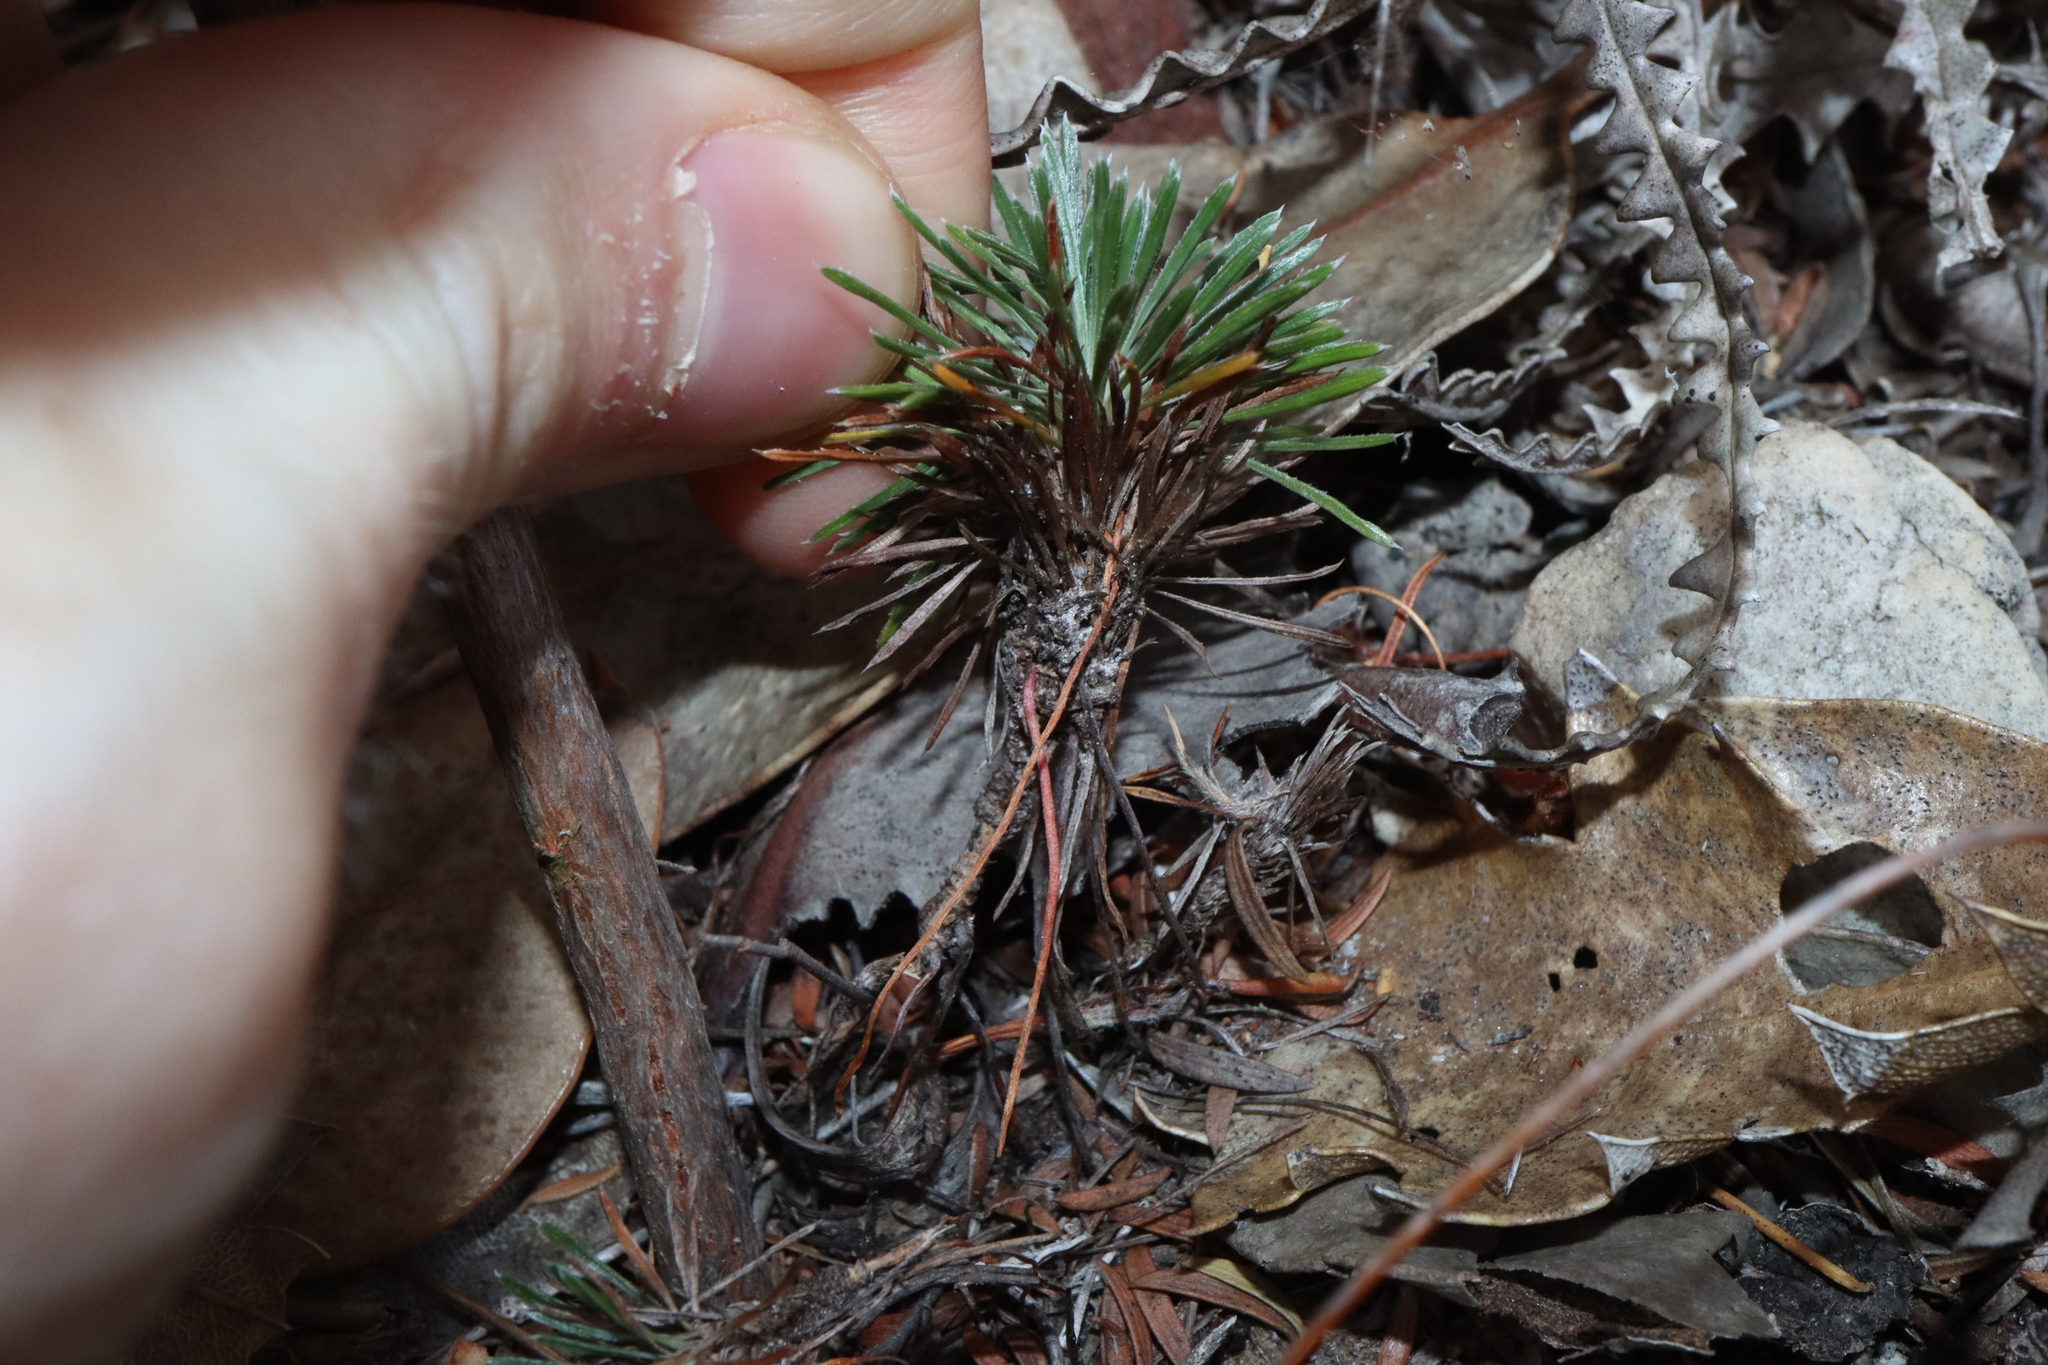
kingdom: Plantae
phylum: Tracheophyta
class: Magnoliopsida
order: Asterales
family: Stylidiaceae
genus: Stylidium
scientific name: Stylidium spinulosum
